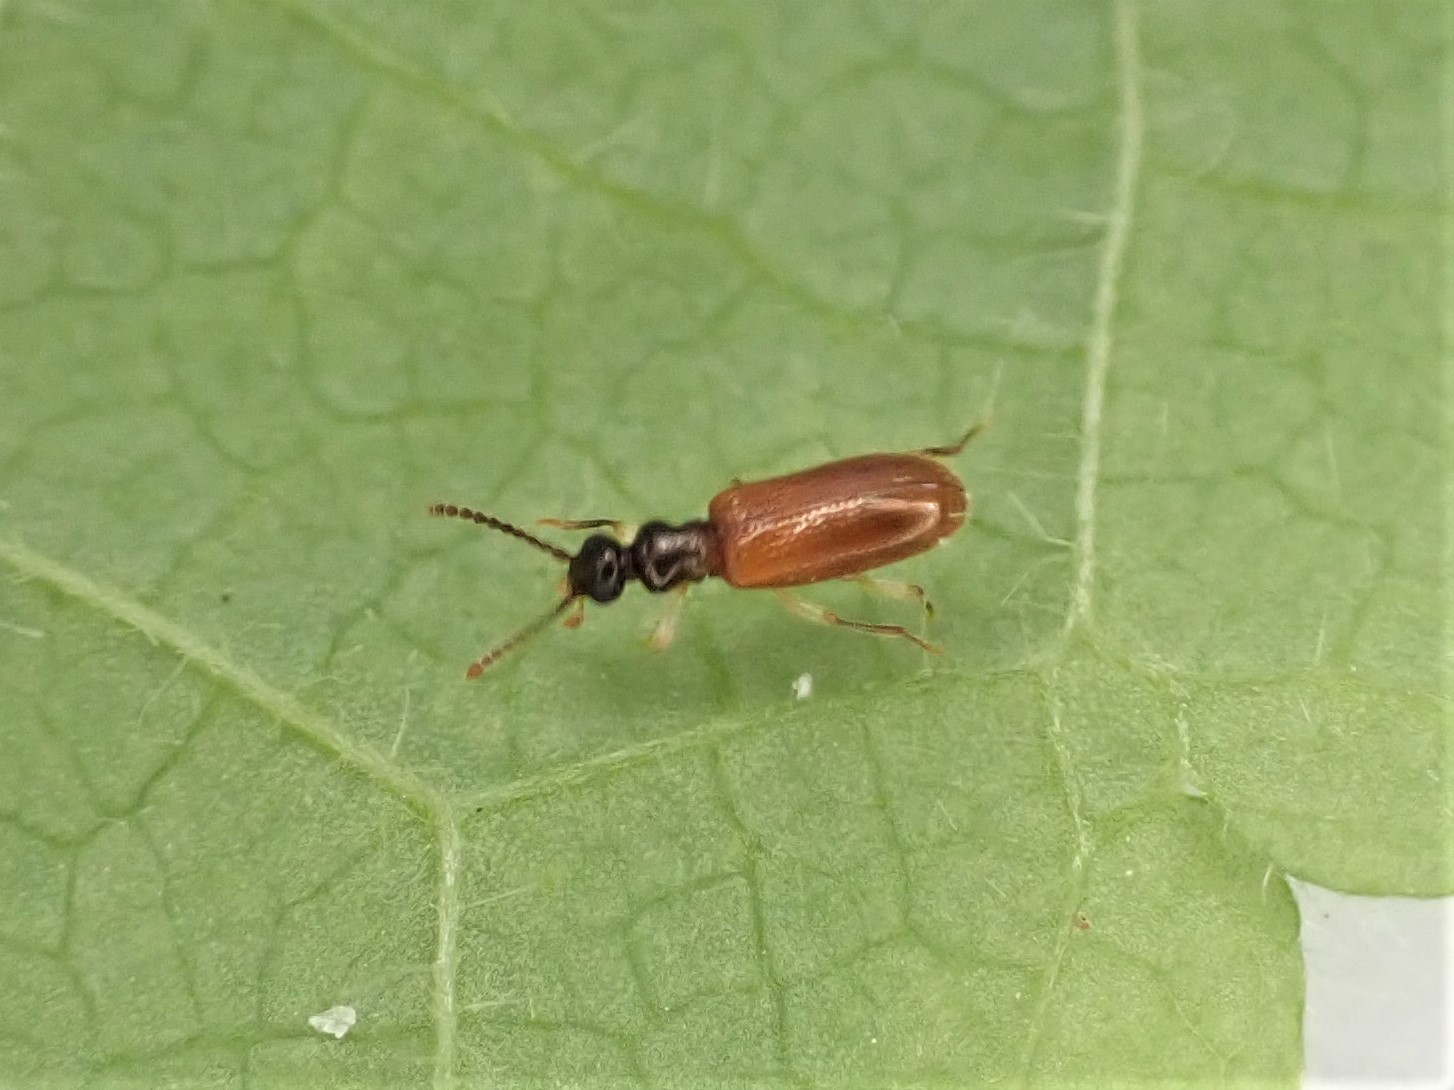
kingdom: Animalia
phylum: Arthropoda
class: Insecta
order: Coleoptera
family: Anthicidae
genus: Trichananca
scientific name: Trichananca fulgida
